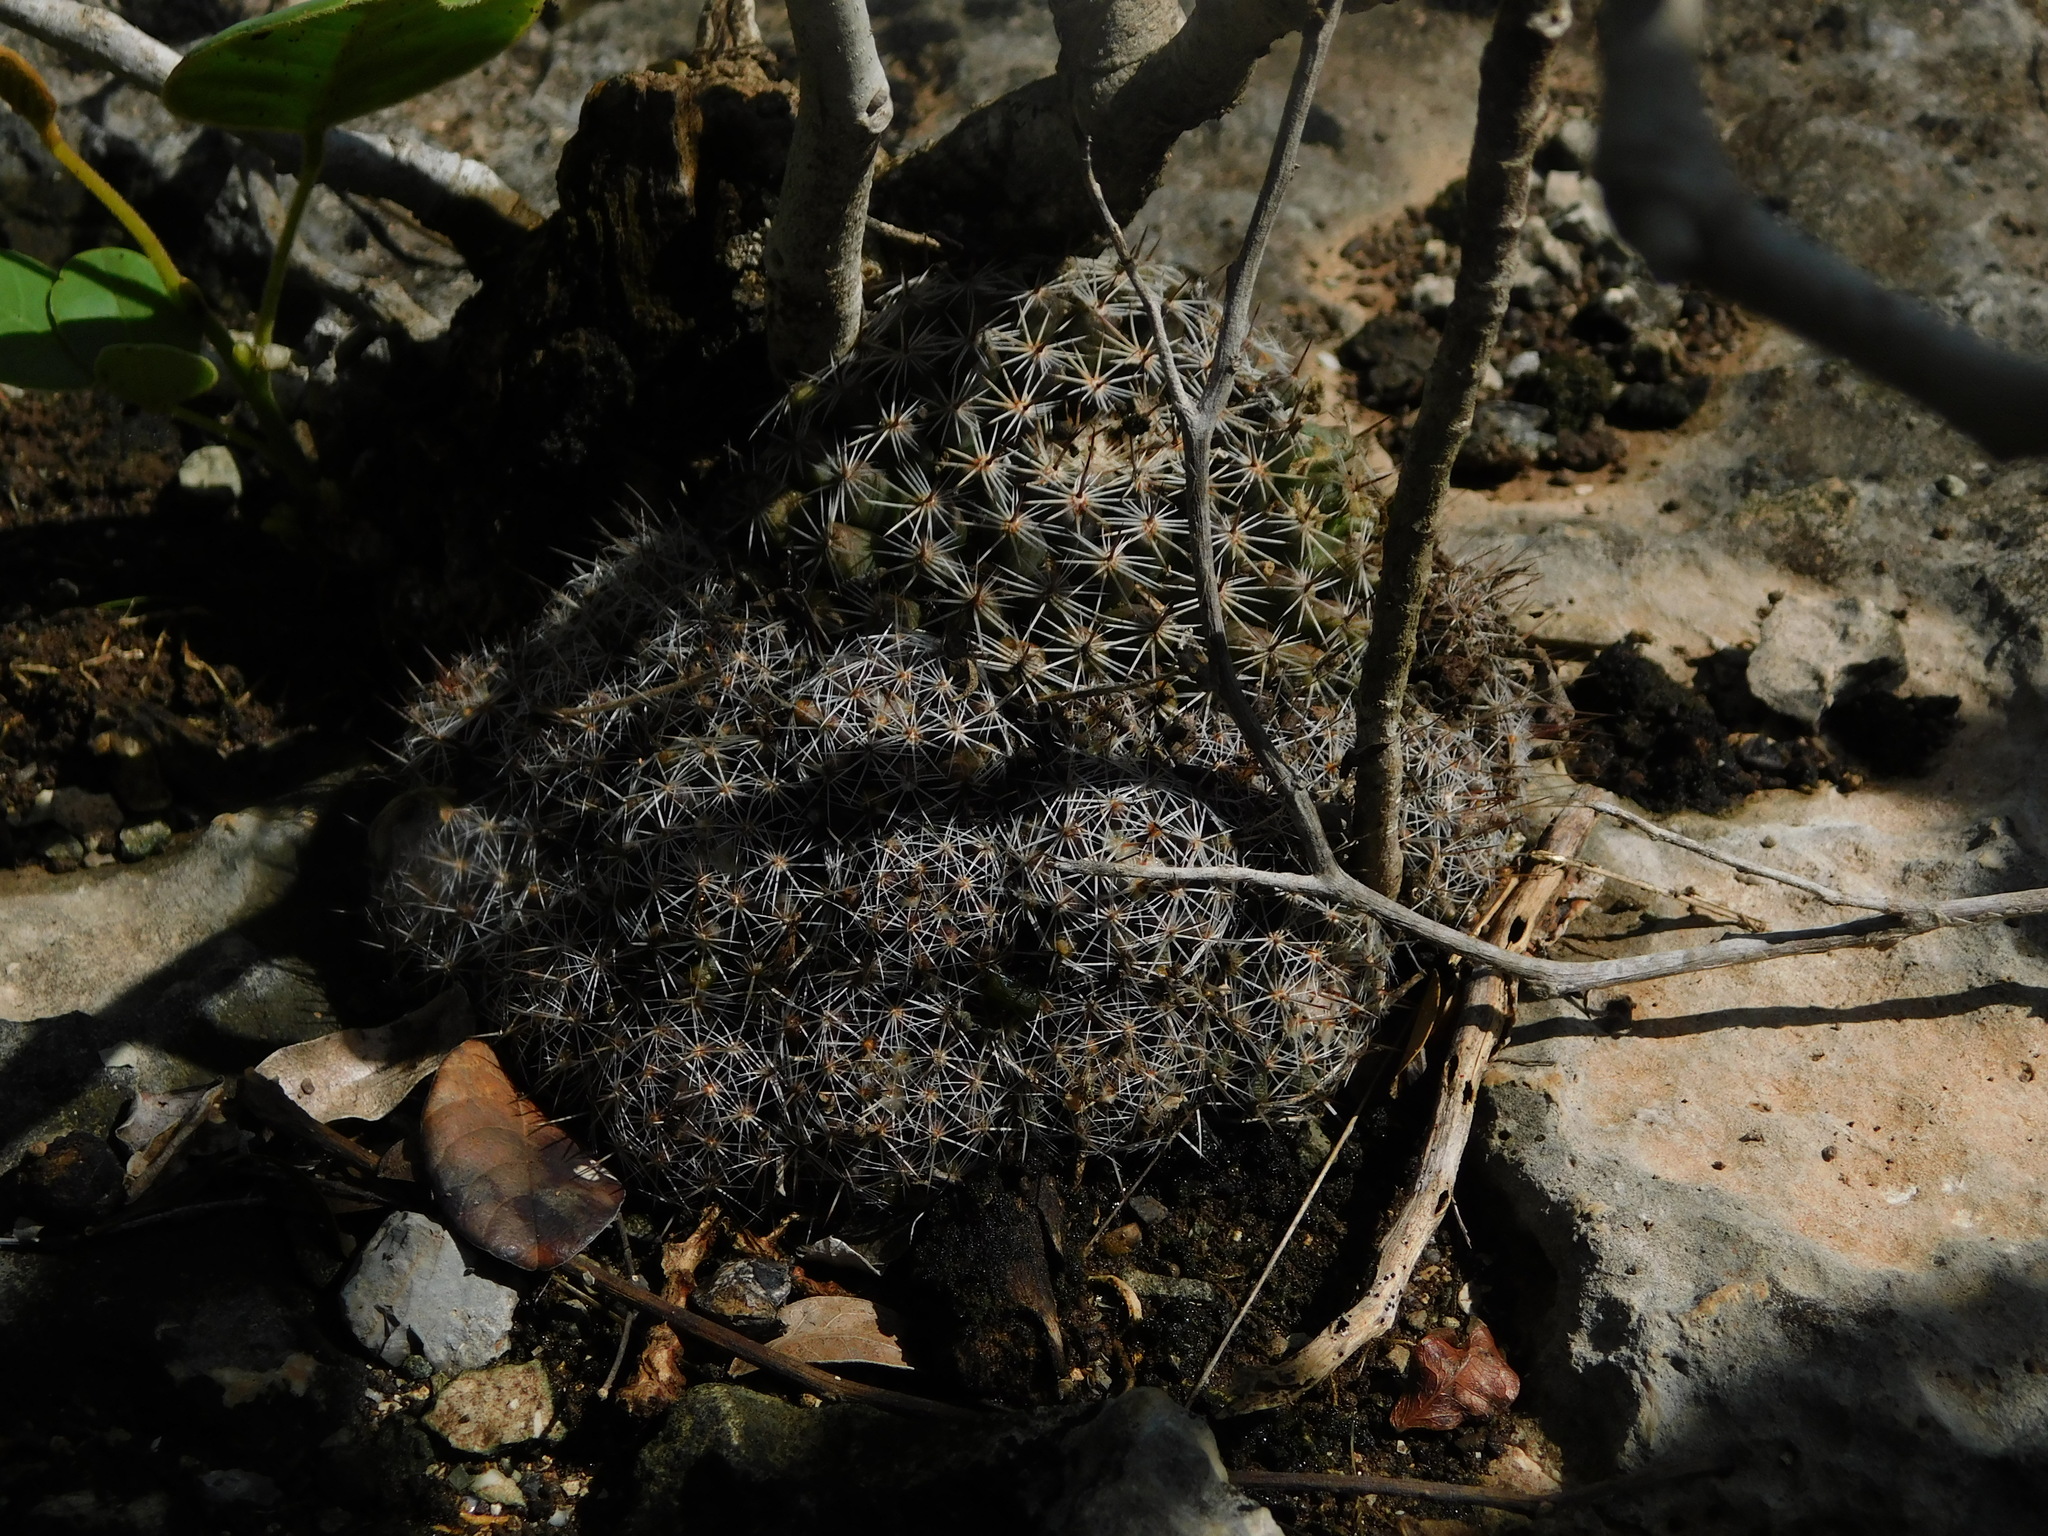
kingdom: Plantae
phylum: Tracheophyta
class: Magnoliopsida
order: Caryophyllales
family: Cactaceae
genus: Mammillaria
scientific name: Mammillaria heyderi
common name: Little nipple cactus
